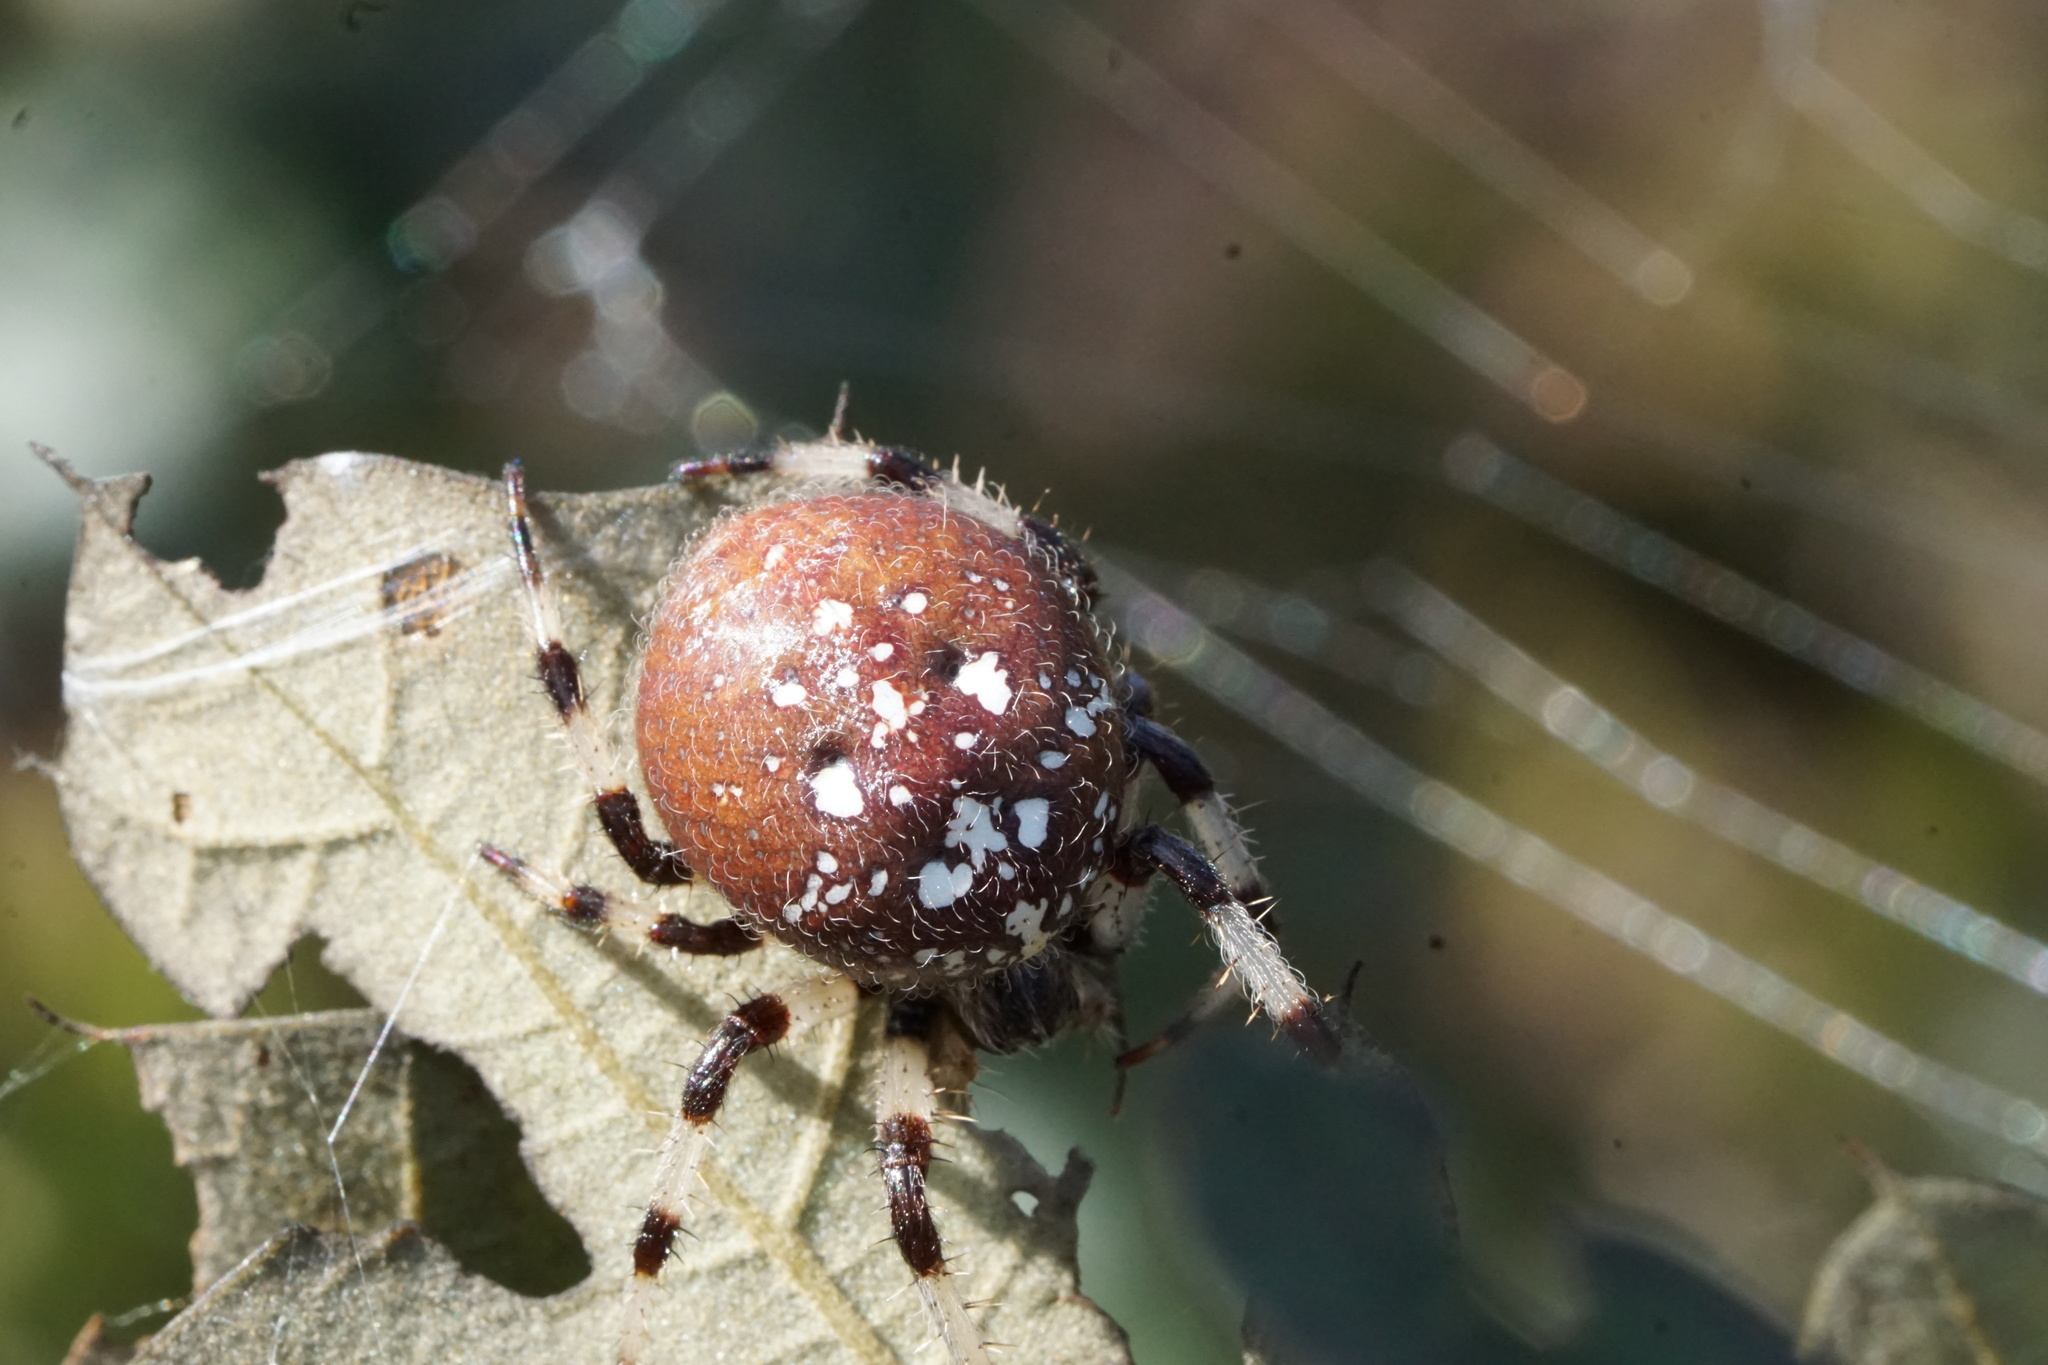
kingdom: Animalia
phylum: Arthropoda
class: Arachnida
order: Araneae
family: Araneidae
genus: Araneus
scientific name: Araneus trifolium
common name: Shamrock orbweaver
